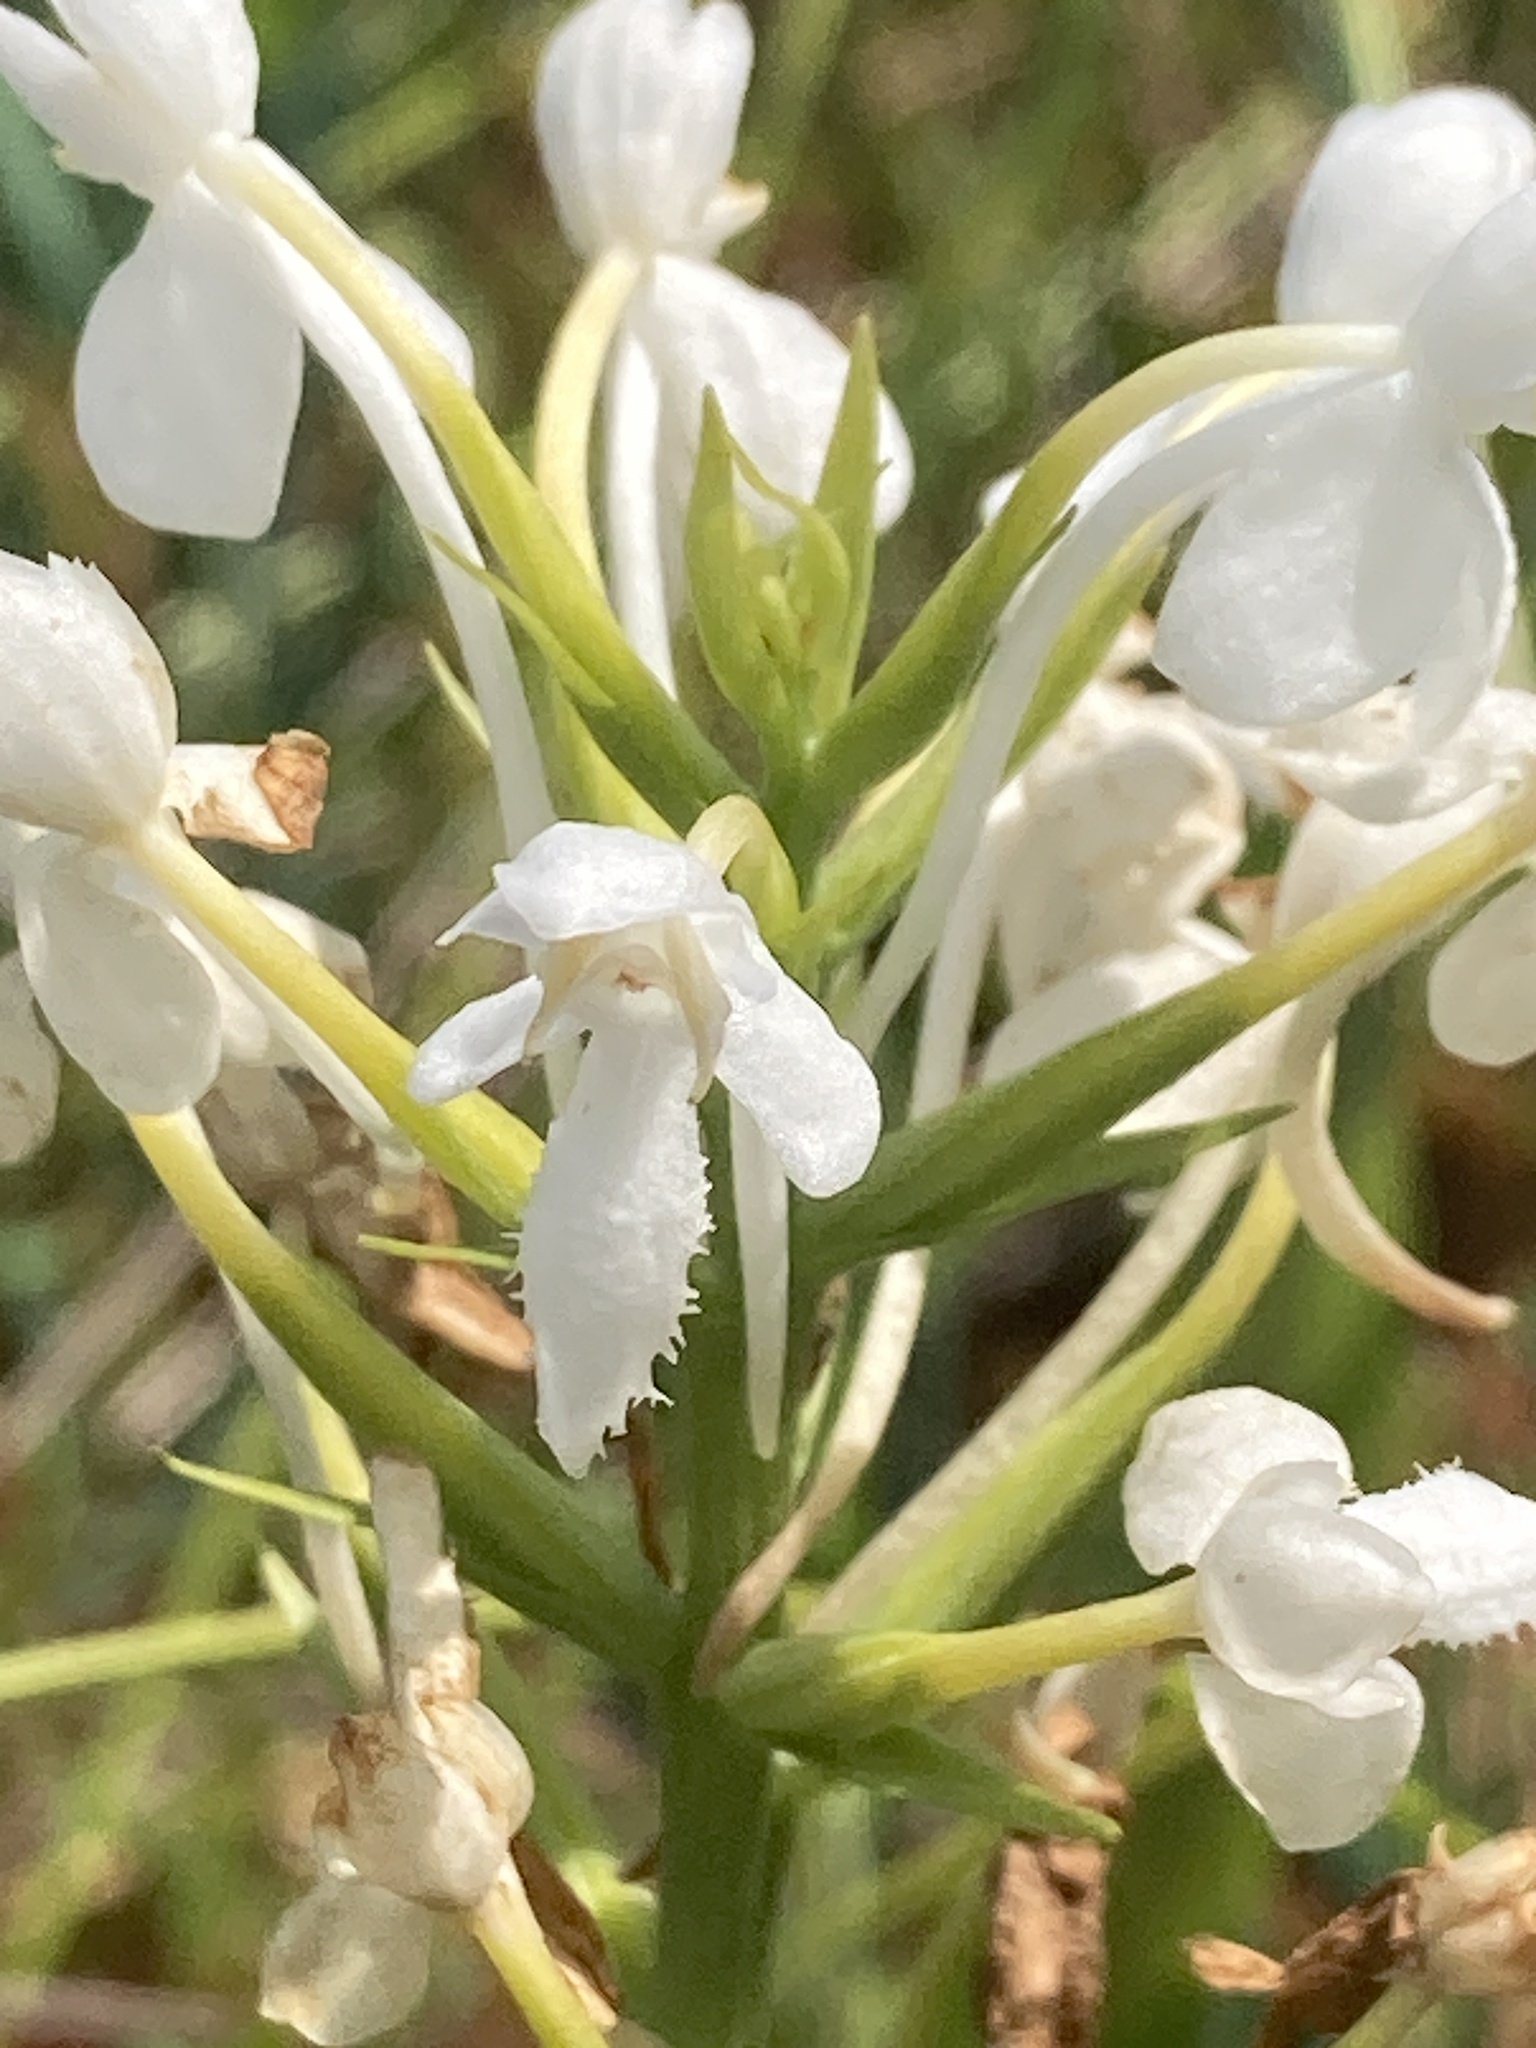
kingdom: Plantae
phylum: Tracheophyta
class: Liliopsida
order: Asparagales
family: Orchidaceae
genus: Platanthera
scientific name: Platanthera blephariglottis
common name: White fringed orchid
